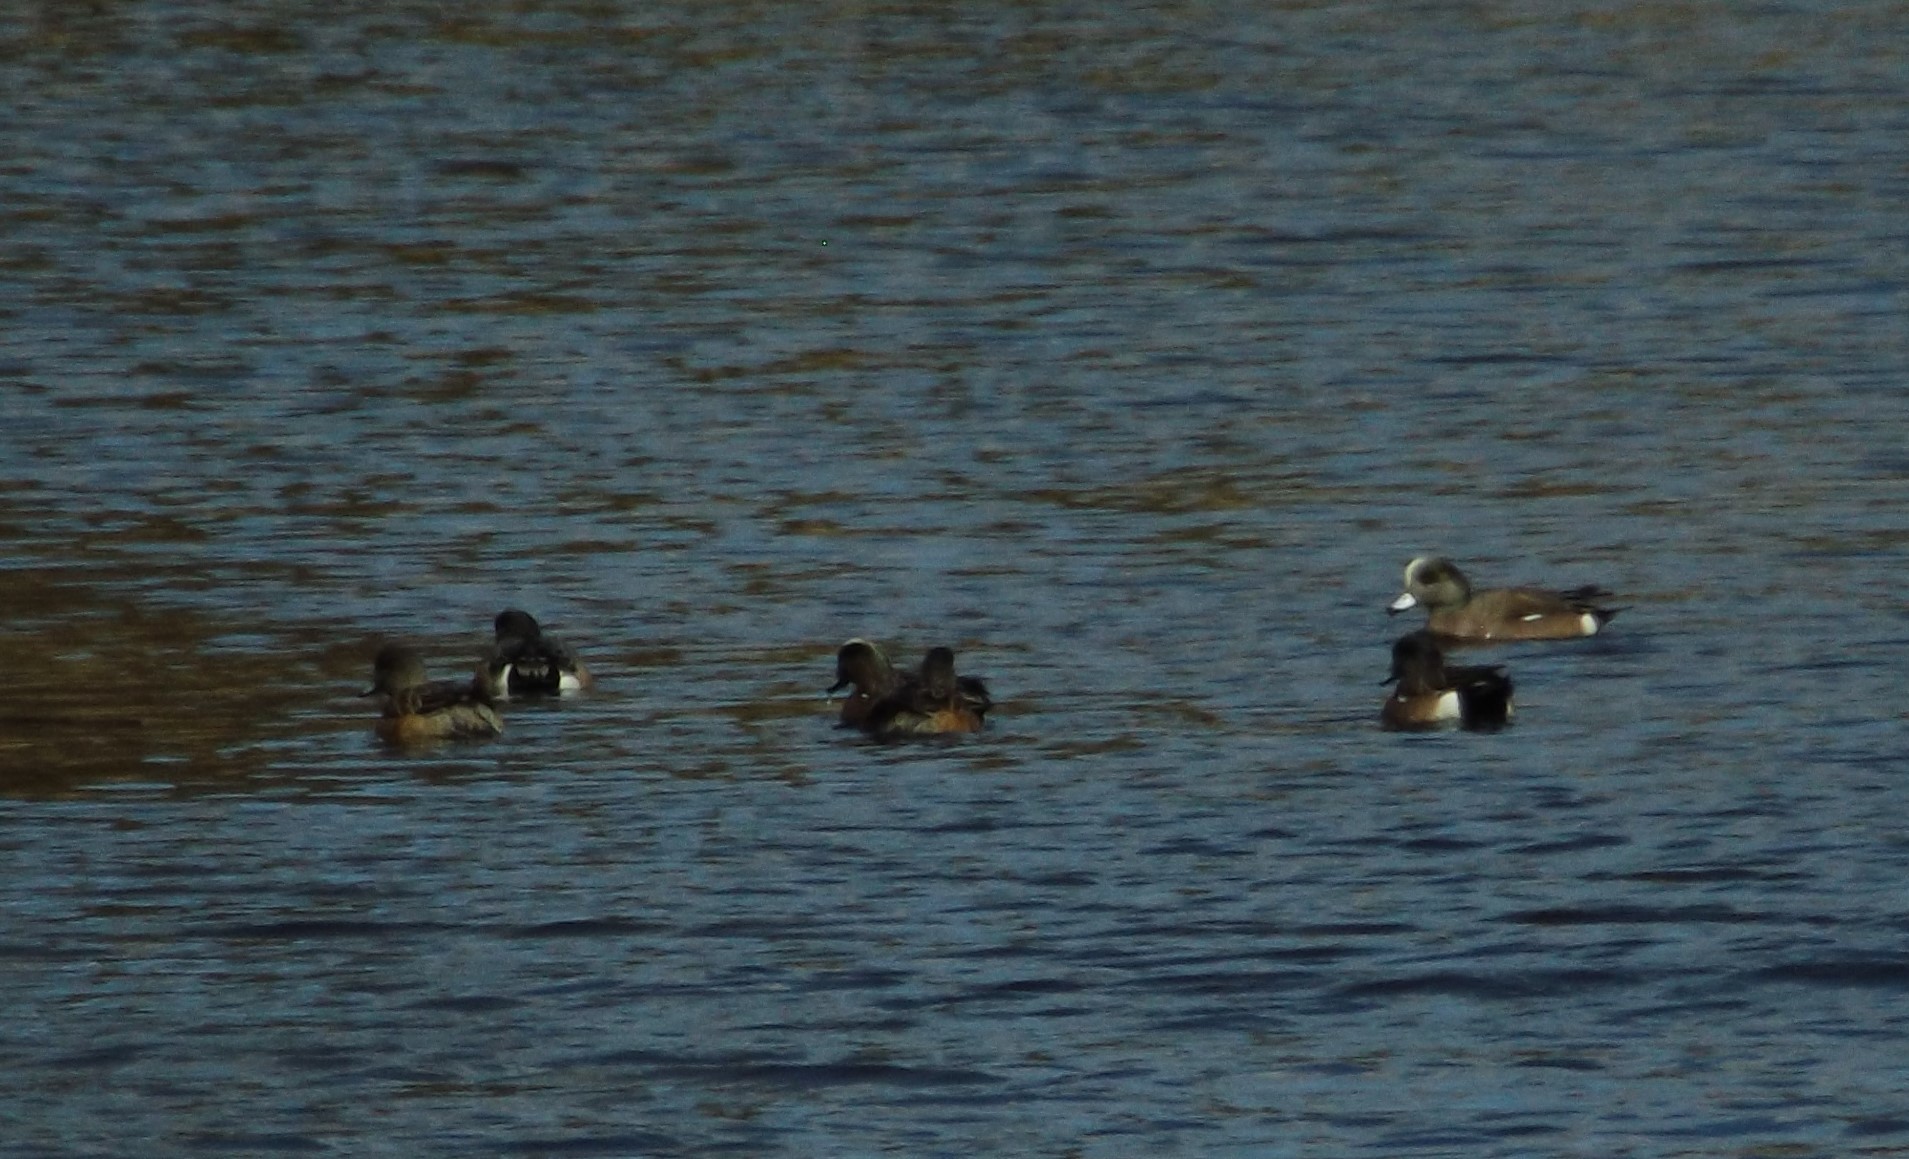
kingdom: Animalia
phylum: Chordata
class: Aves
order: Anseriformes
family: Anatidae
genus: Mareca
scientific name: Mareca americana
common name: American wigeon
